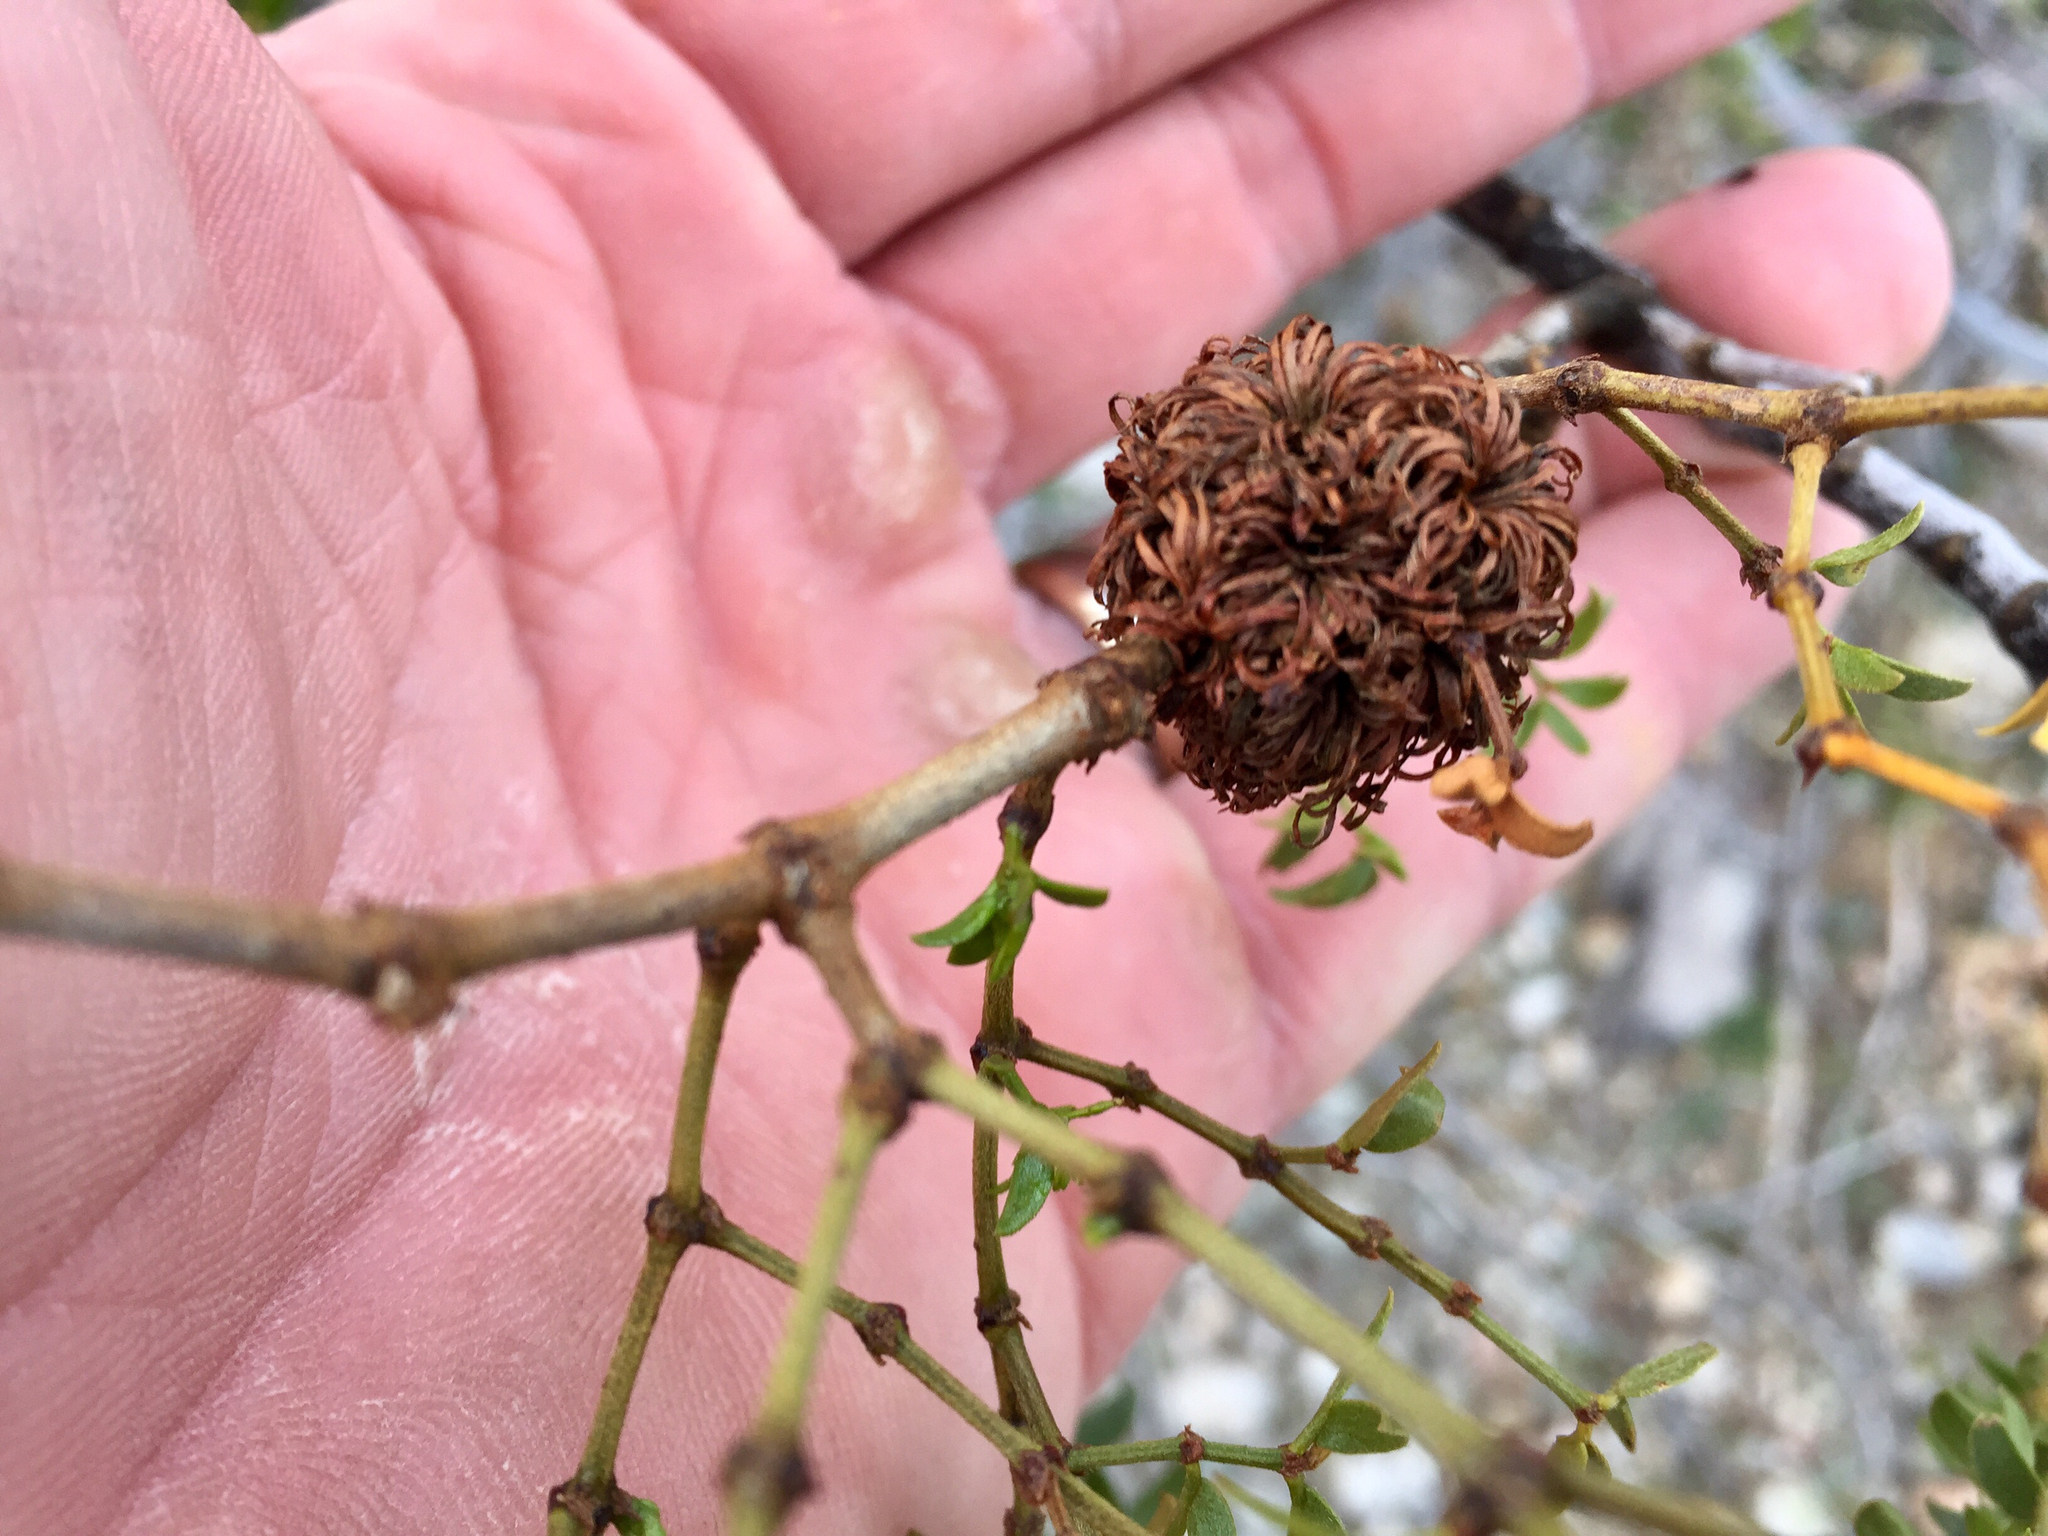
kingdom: Animalia
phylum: Arthropoda
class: Insecta
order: Diptera
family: Cecidomyiidae
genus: Asphondylia
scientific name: Asphondylia auripila
